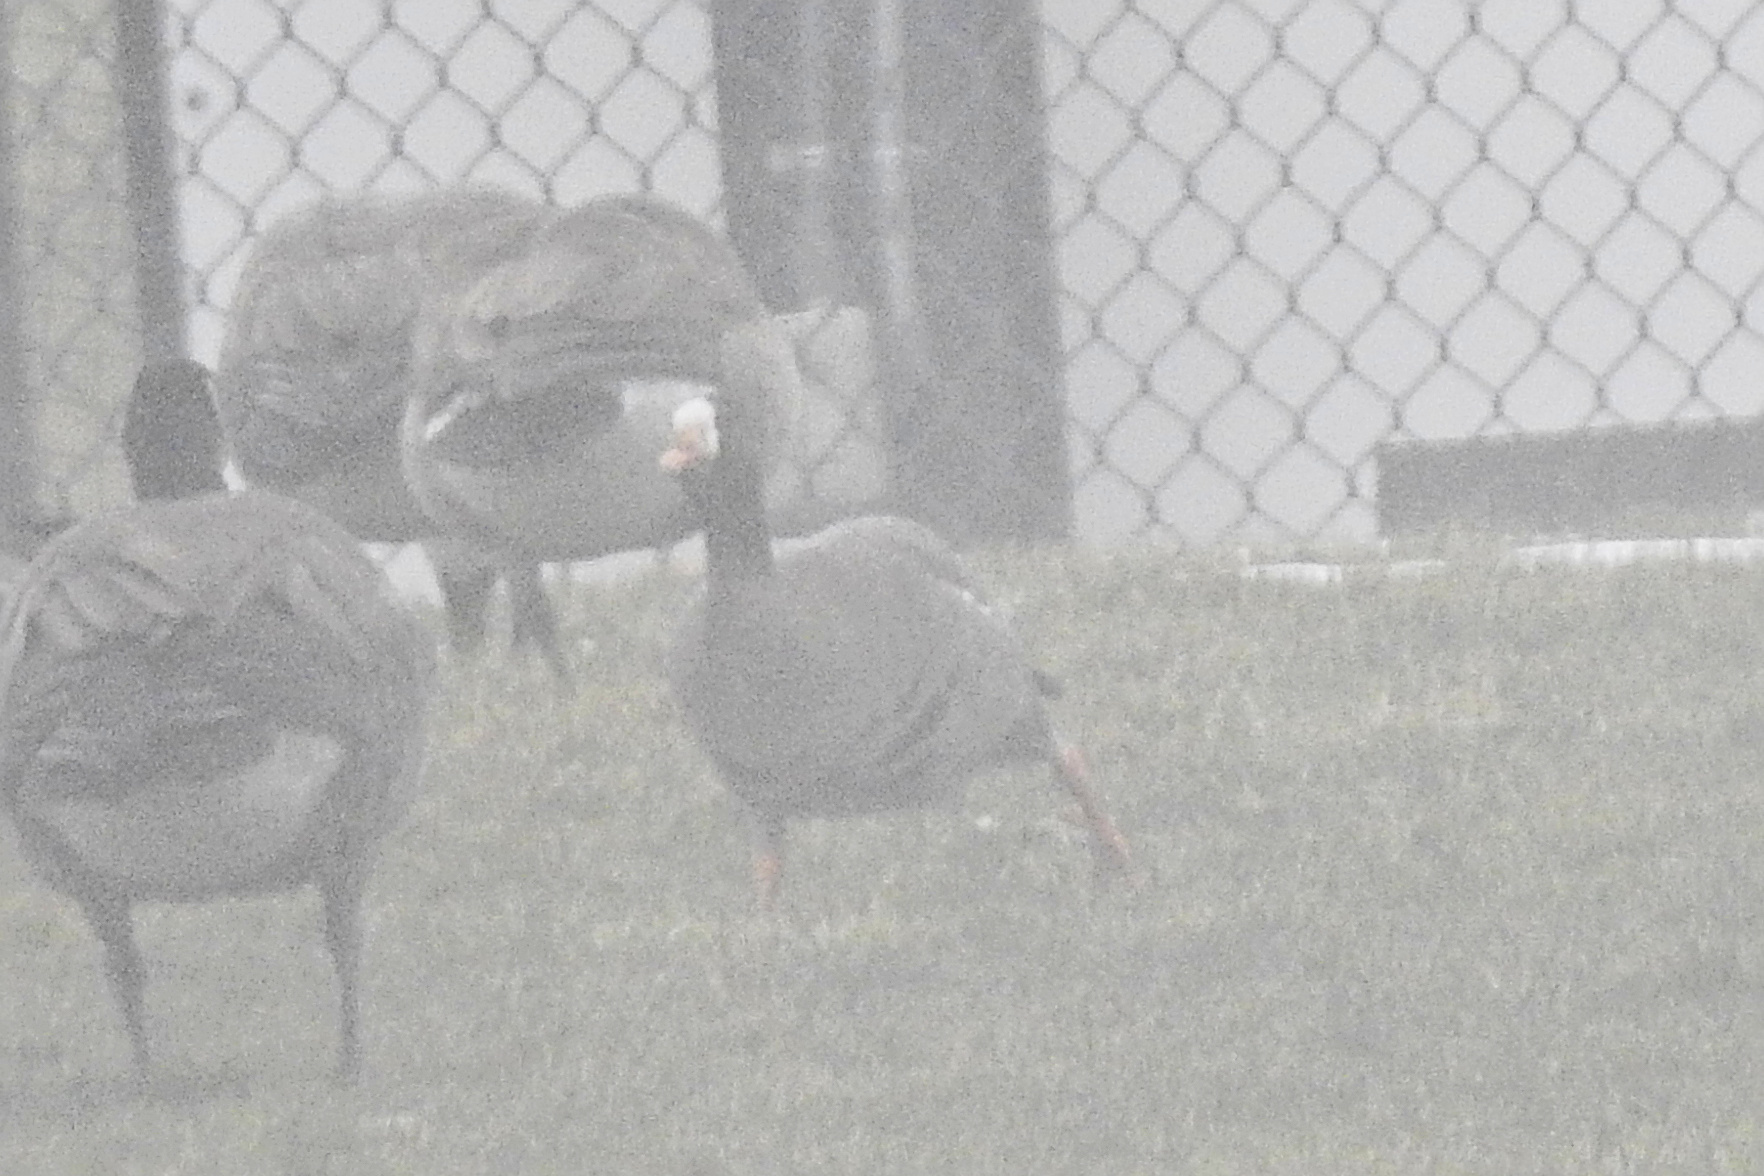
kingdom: Animalia
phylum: Chordata
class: Aves
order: Anseriformes
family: Anatidae
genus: Anser
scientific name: Anser albifrons
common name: Greater white-fronted goose
